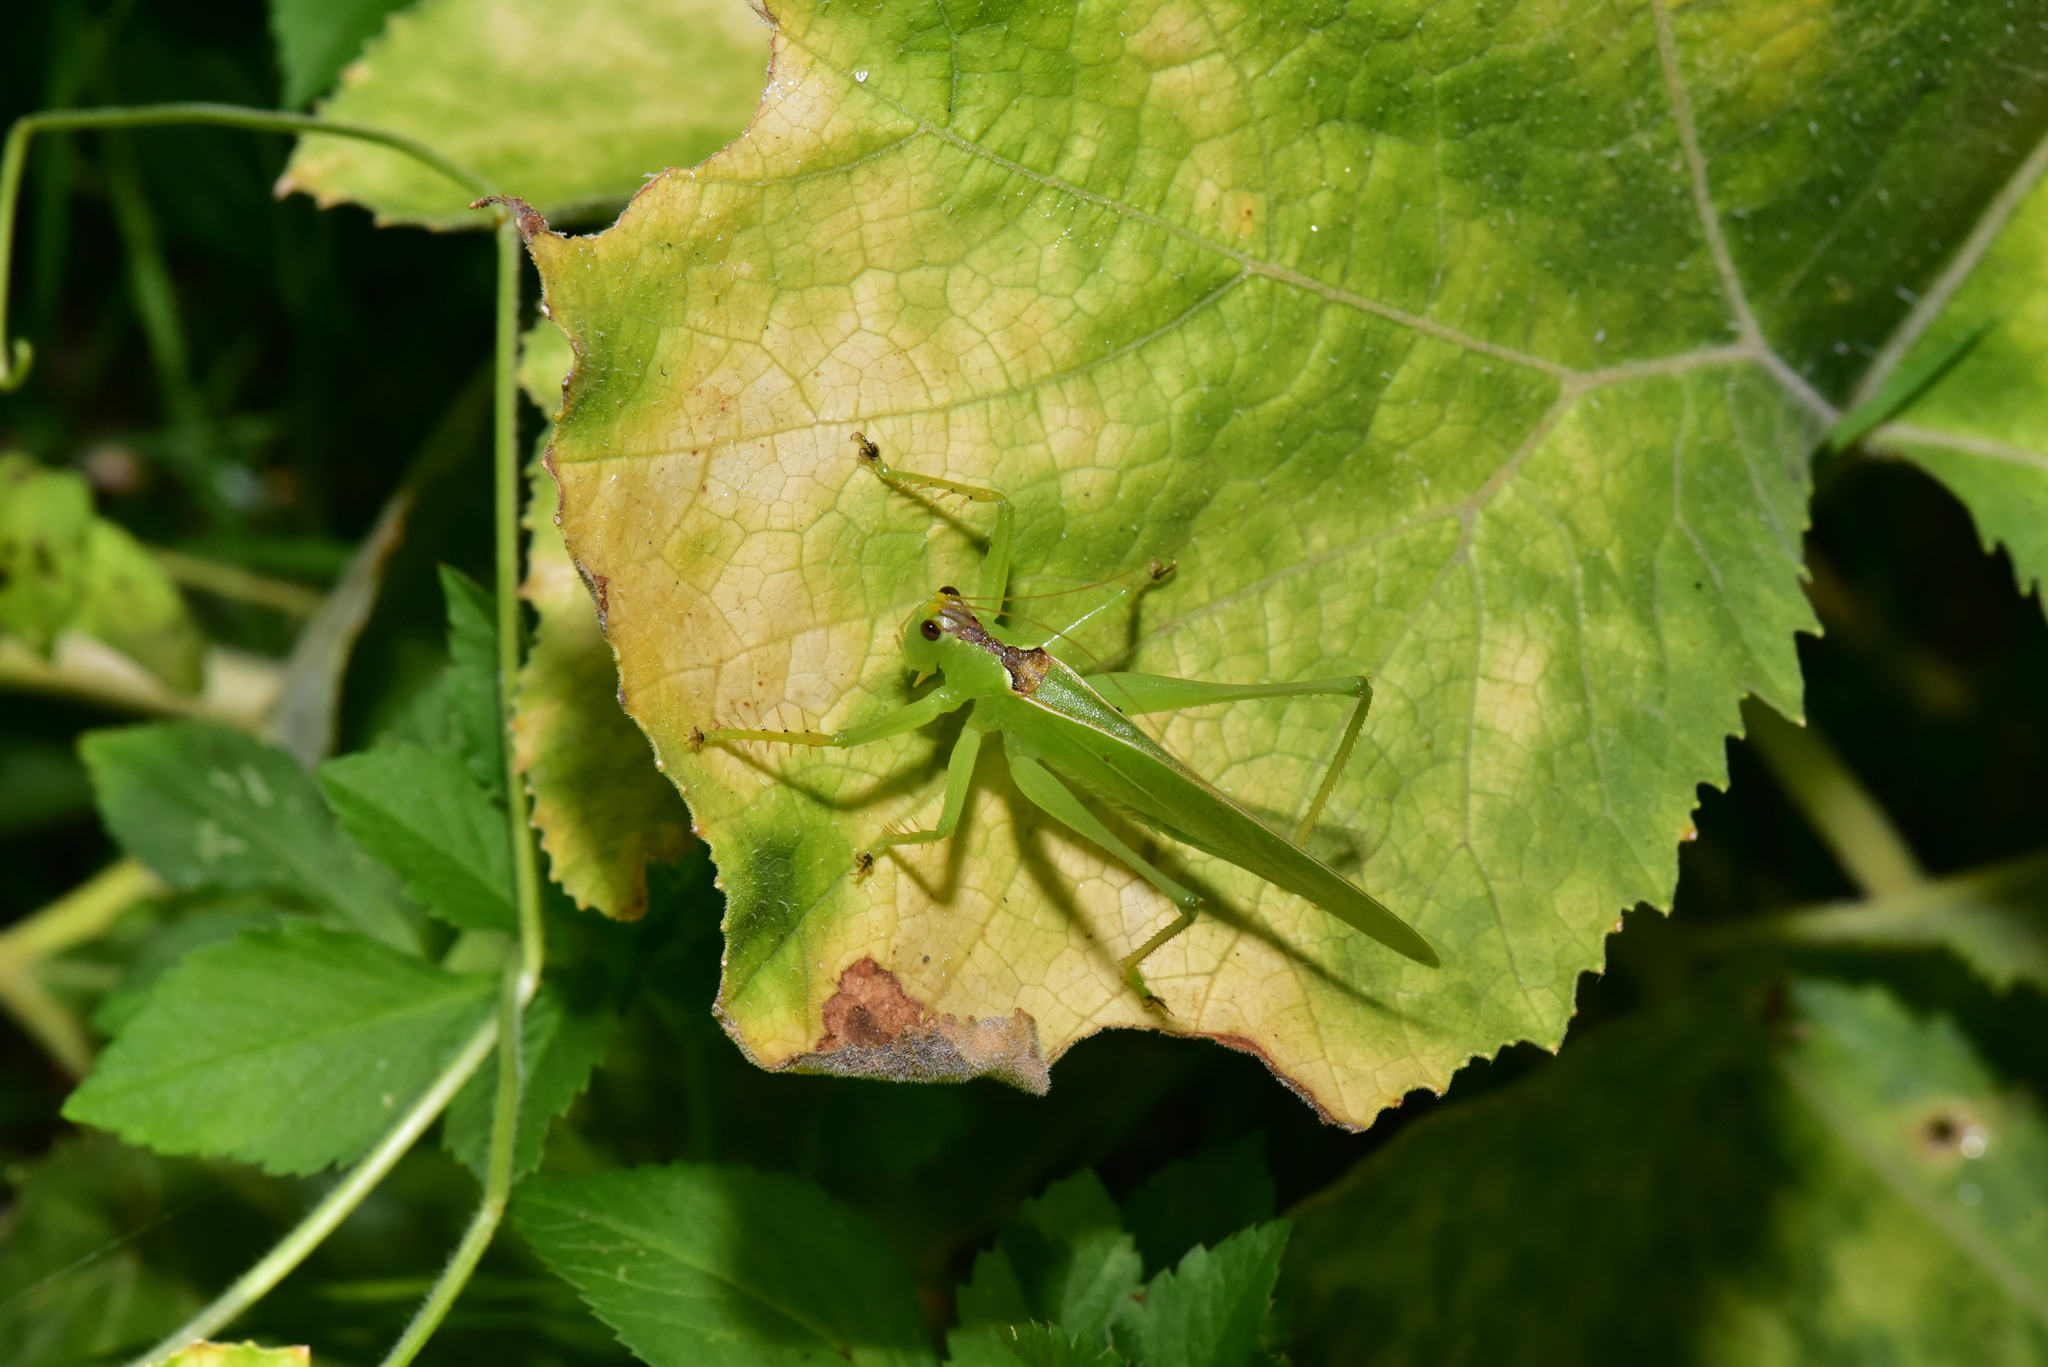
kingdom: Animalia
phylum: Arthropoda
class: Insecta
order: Orthoptera
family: Tettigoniidae
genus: Hexacentrus
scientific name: Hexacentrus unicolor
